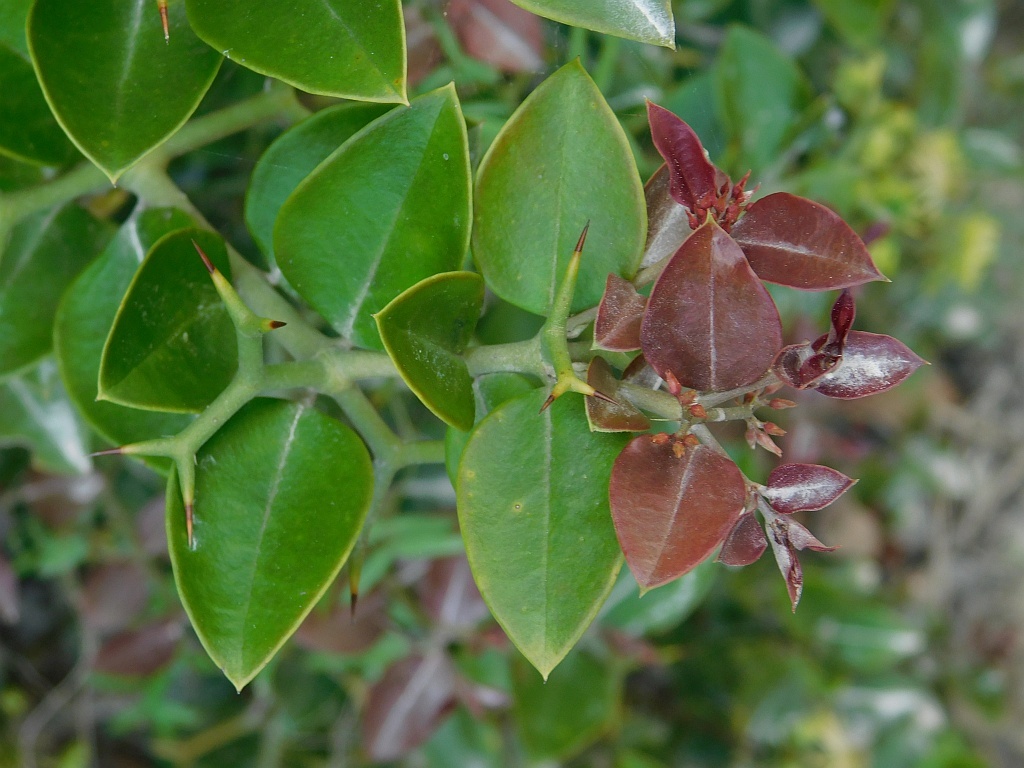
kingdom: Plantae
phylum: Tracheophyta
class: Magnoliopsida
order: Gentianales
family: Apocynaceae
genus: Carissa
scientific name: Carissa bispinosa
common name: Forest num-num
